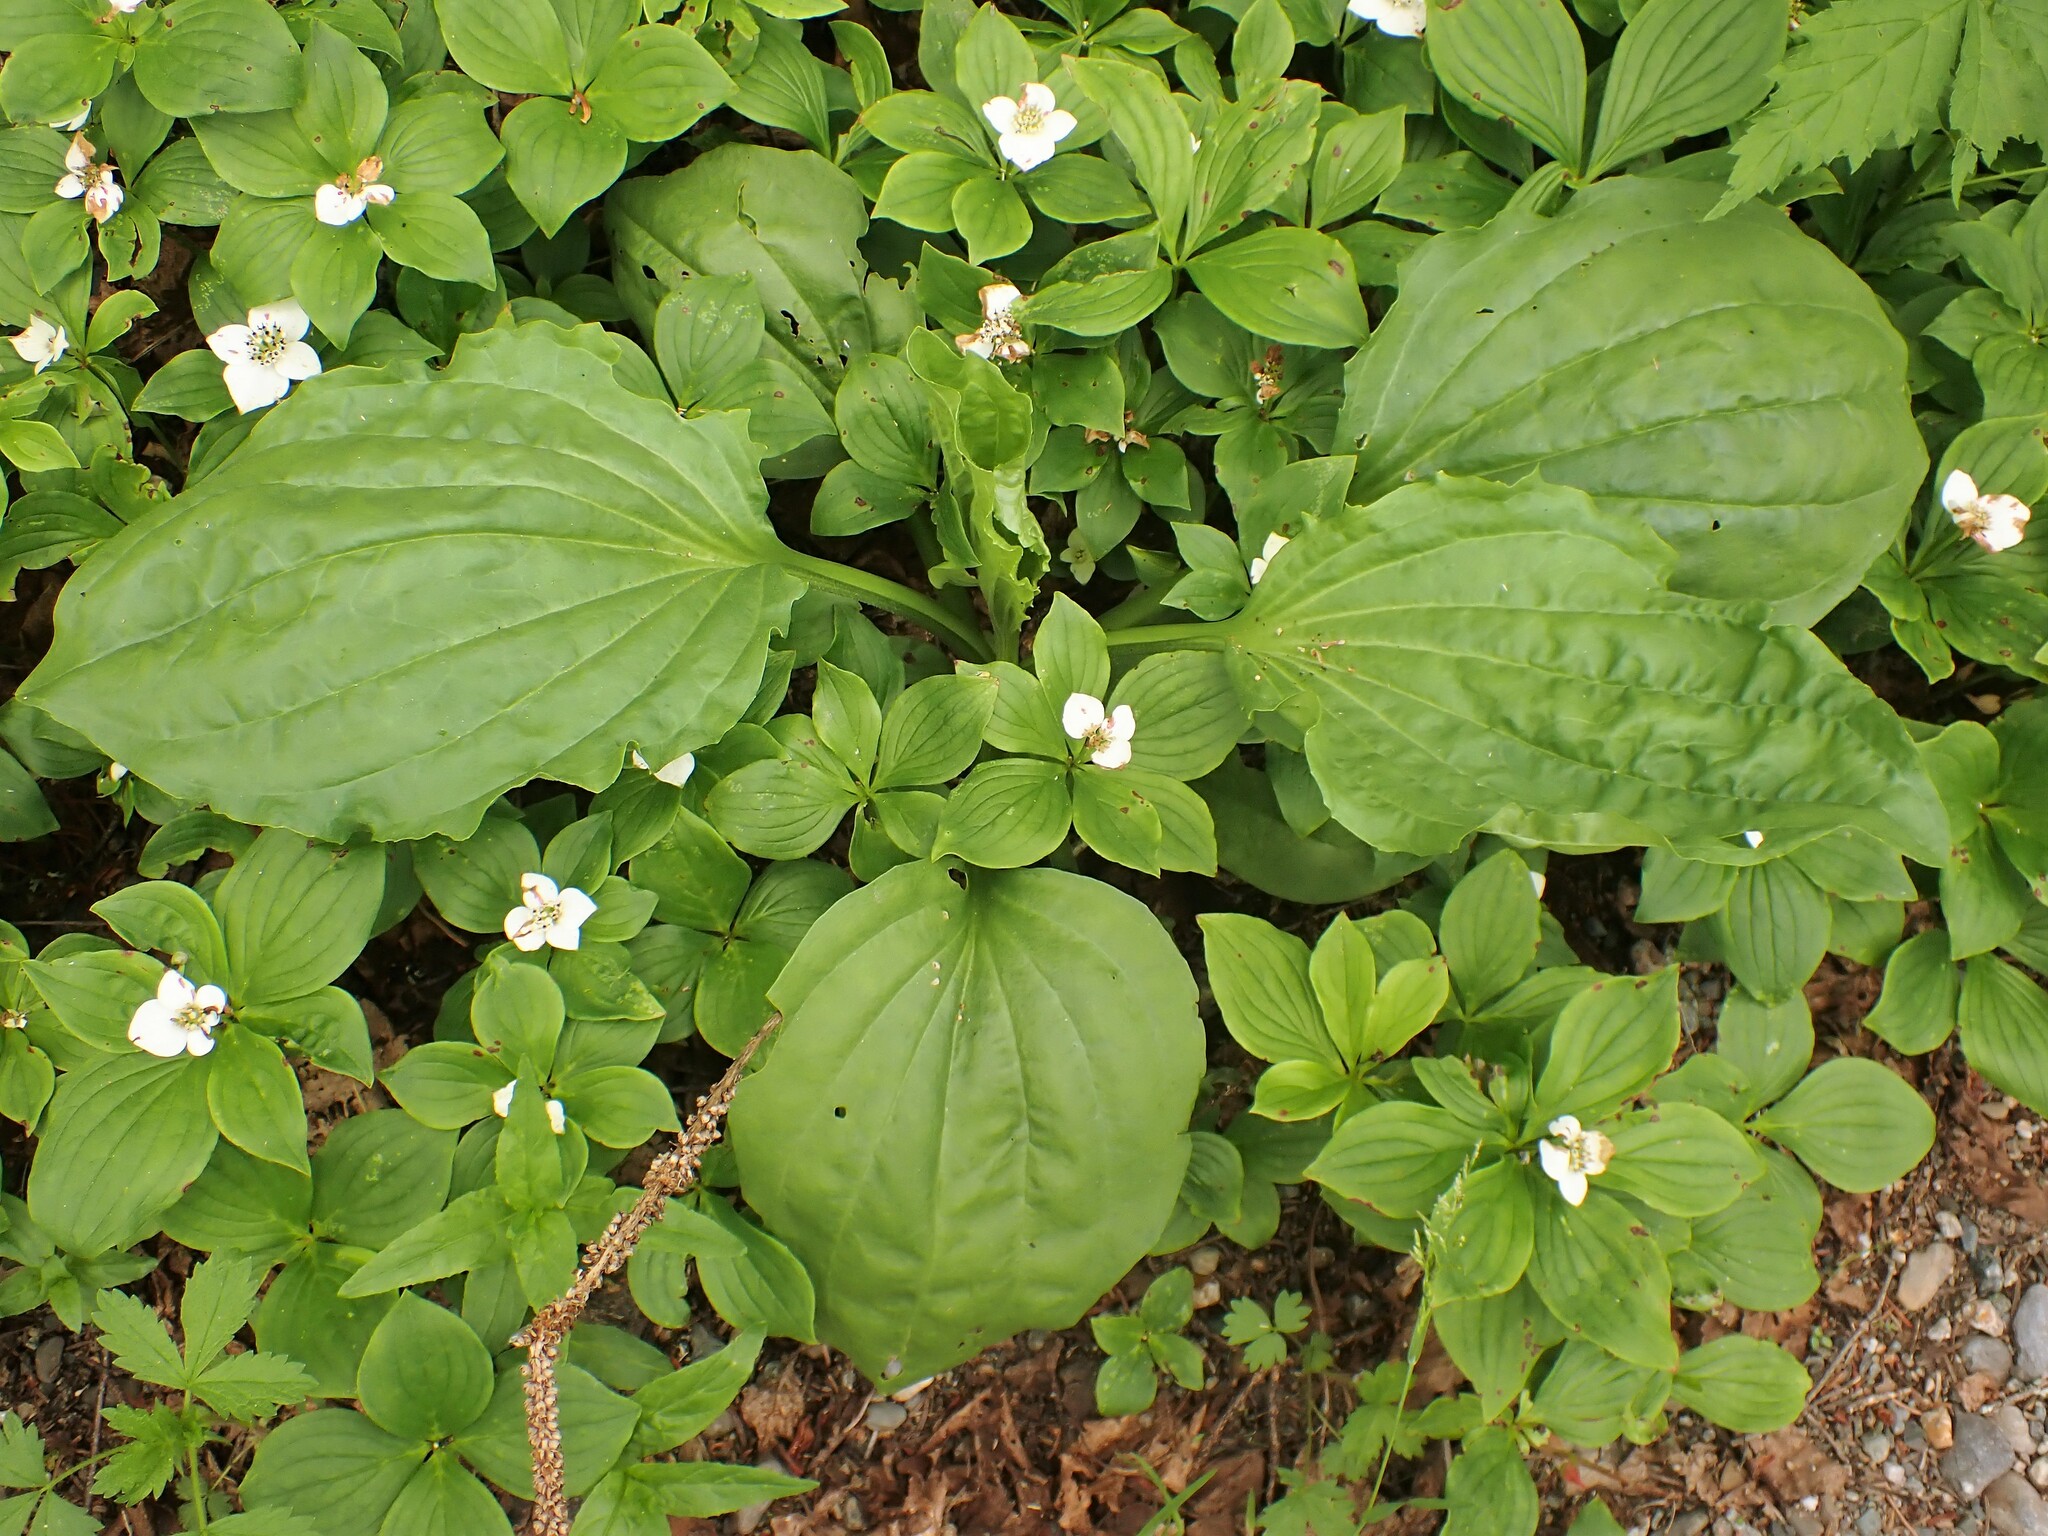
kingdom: Plantae
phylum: Tracheophyta
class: Magnoliopsida
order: Lamiales
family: Plantaginaceae
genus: Plantago
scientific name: Plantago major
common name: Common plantain
